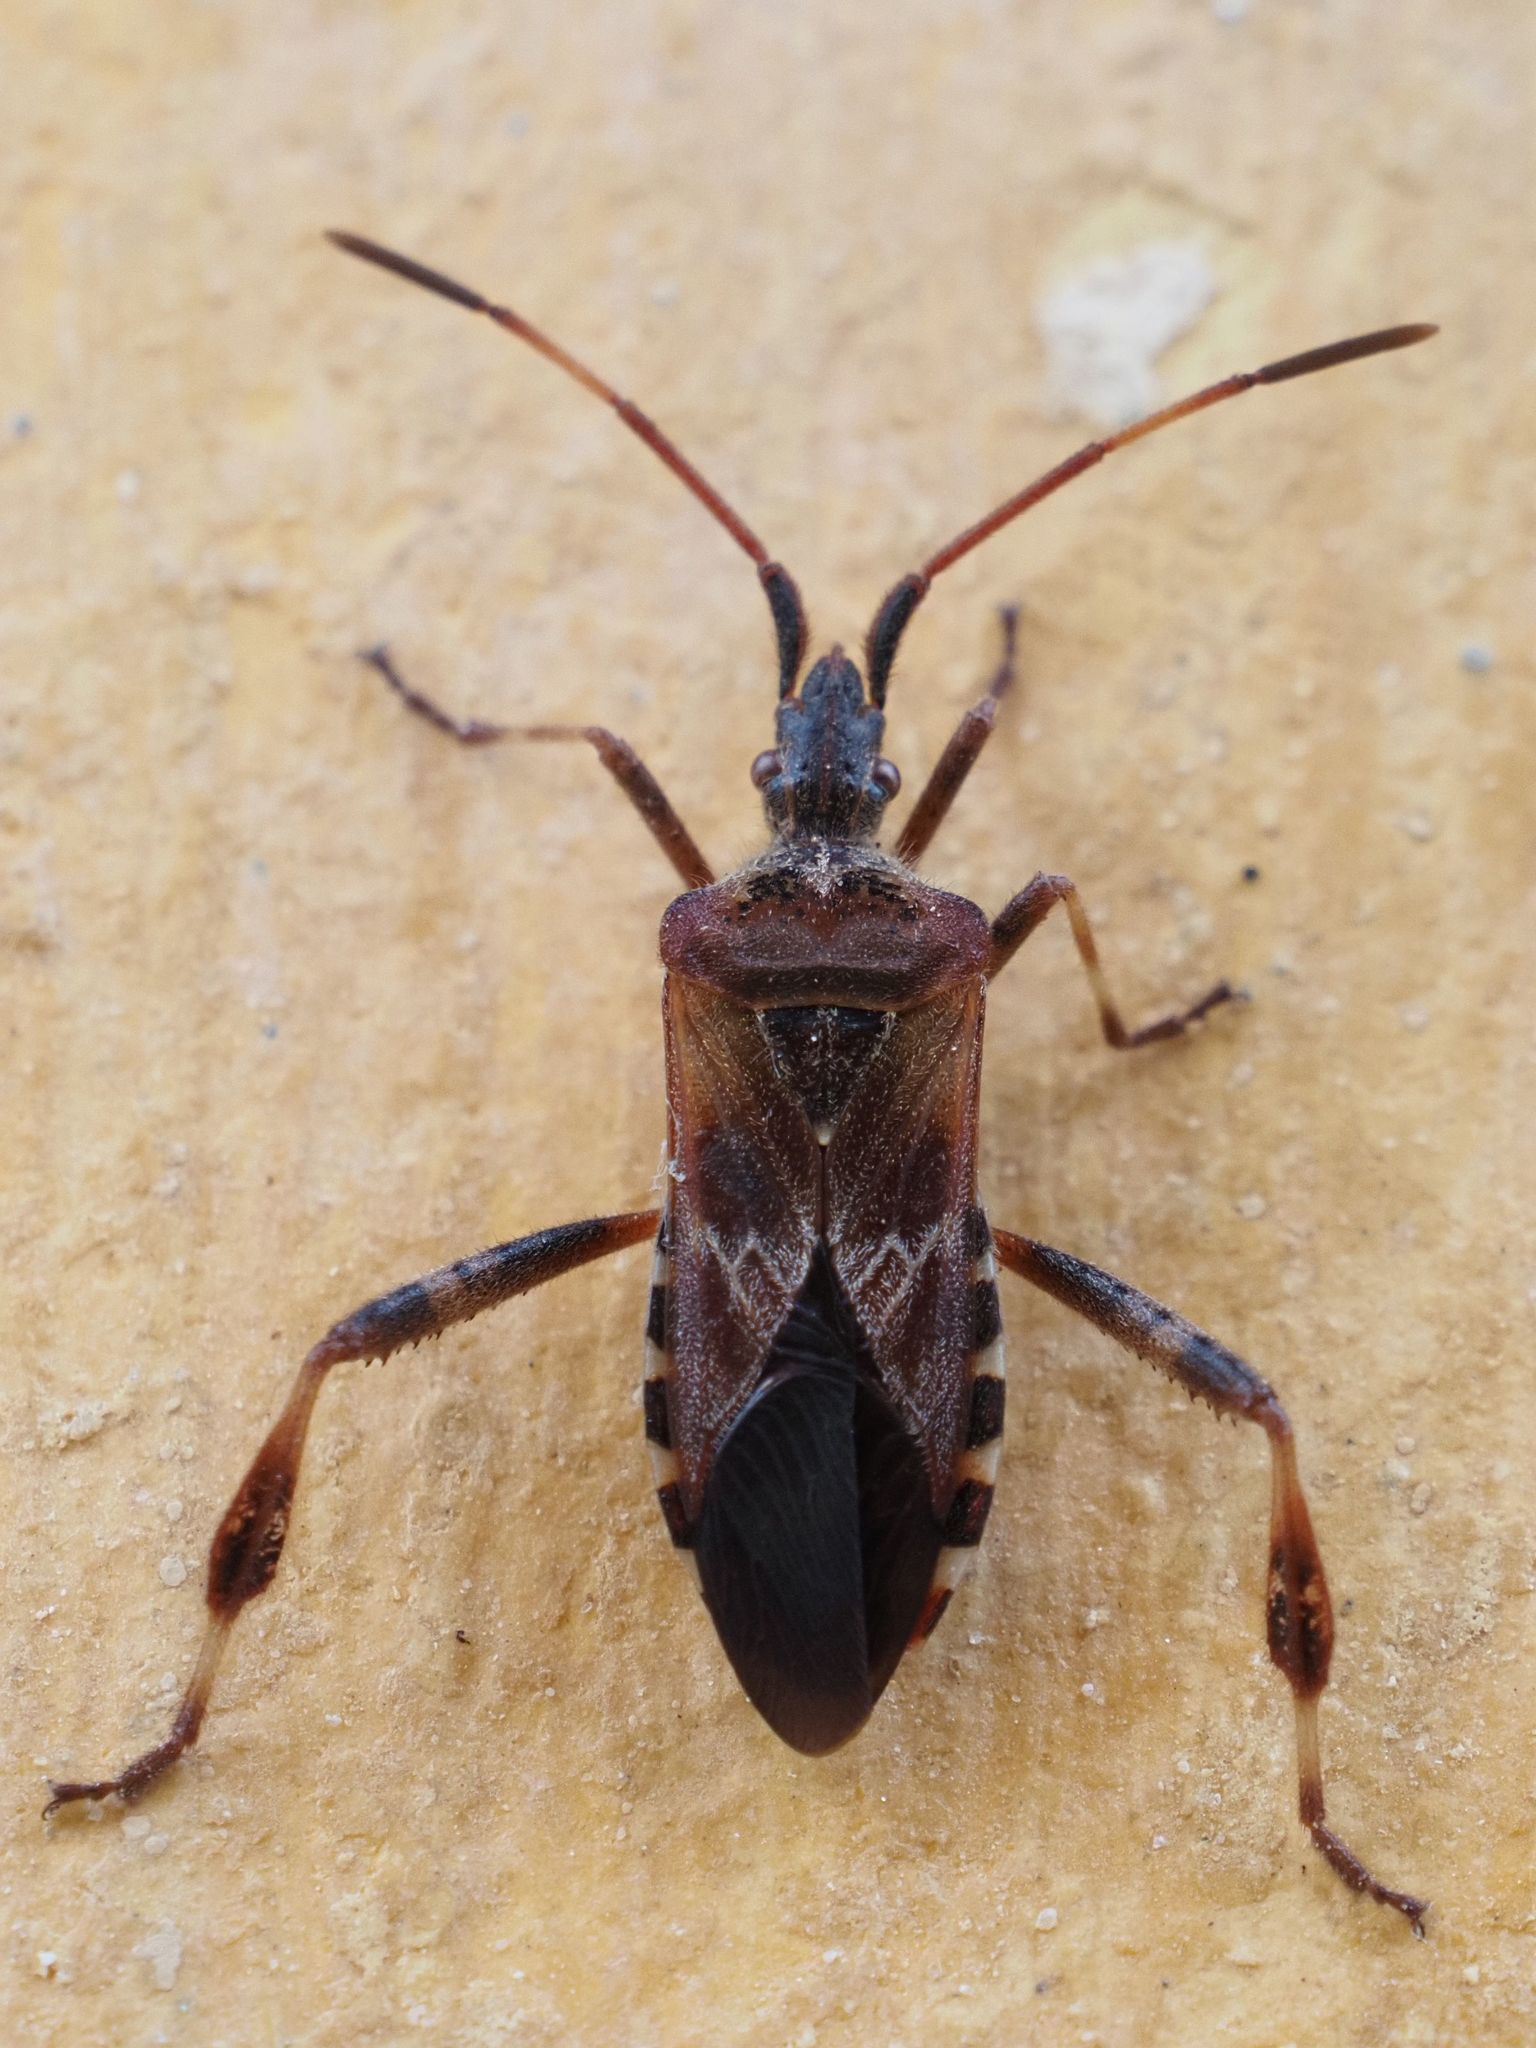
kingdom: Animalia
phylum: Arthropoda
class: Insecta
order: Hemiptera
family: Coreidae
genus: Leptoglossus
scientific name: Leptoglossus occidentalis
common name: Western conifer-seed bug
